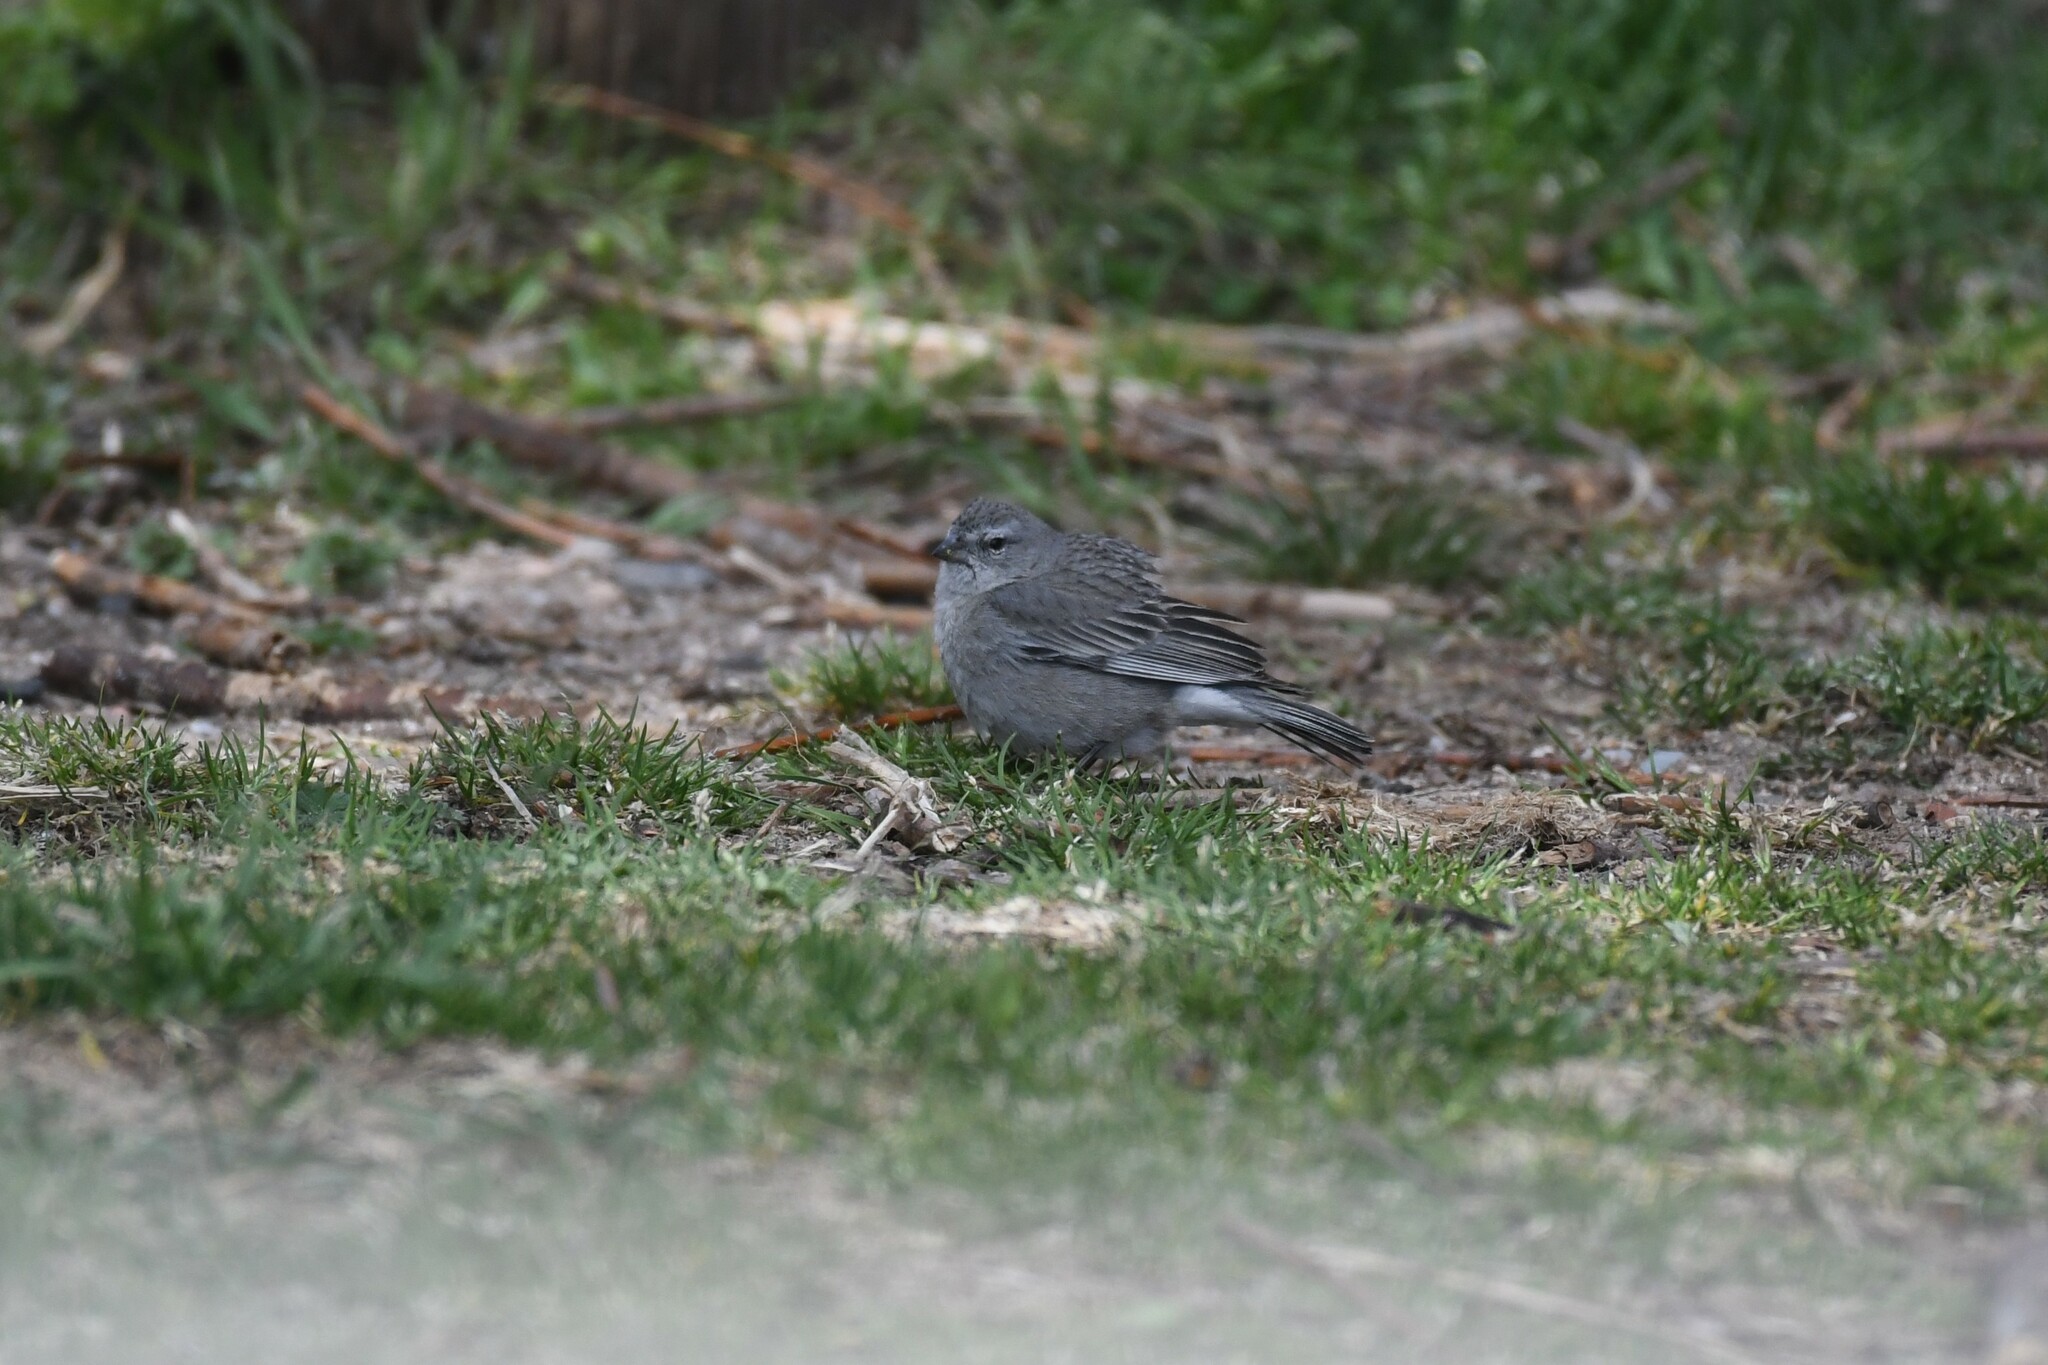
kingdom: Animalia
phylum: Chordata
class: Aves
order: Passeriformes
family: Thraupidae
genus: Geospizopsis
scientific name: Geospizopsis plebejus
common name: Ash-breasted sierra-finch
